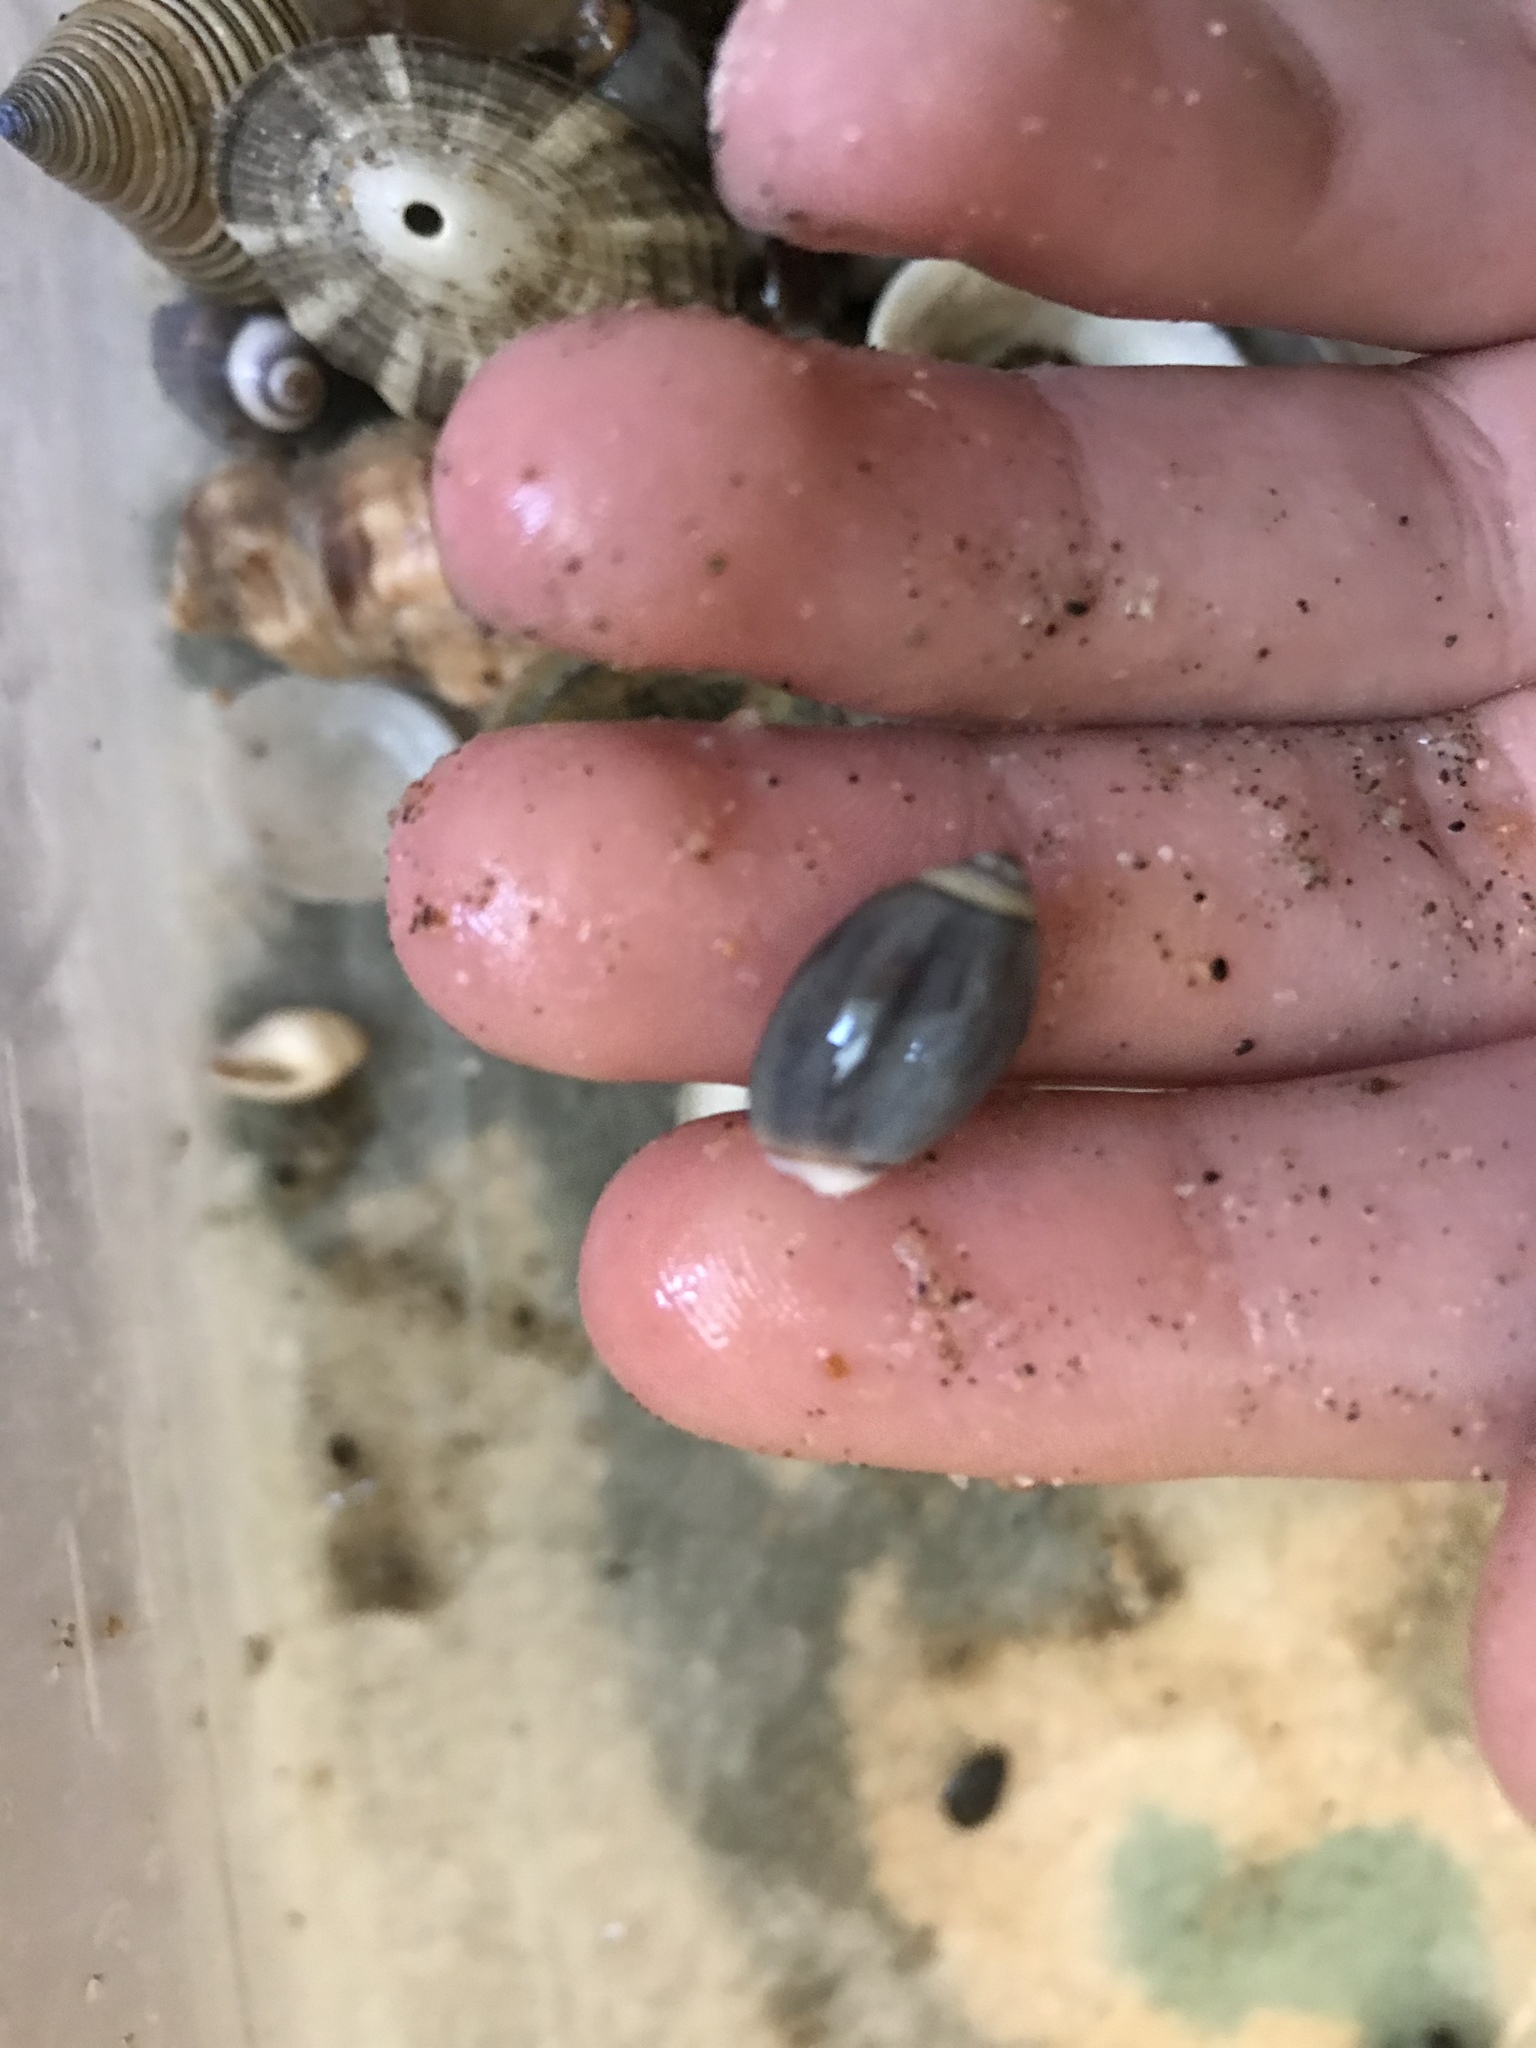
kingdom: Animalia
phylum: Mollusca
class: Gastropoda
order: Neogastropoda
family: Olividae
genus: Callianax
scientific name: Callianax biplicata
